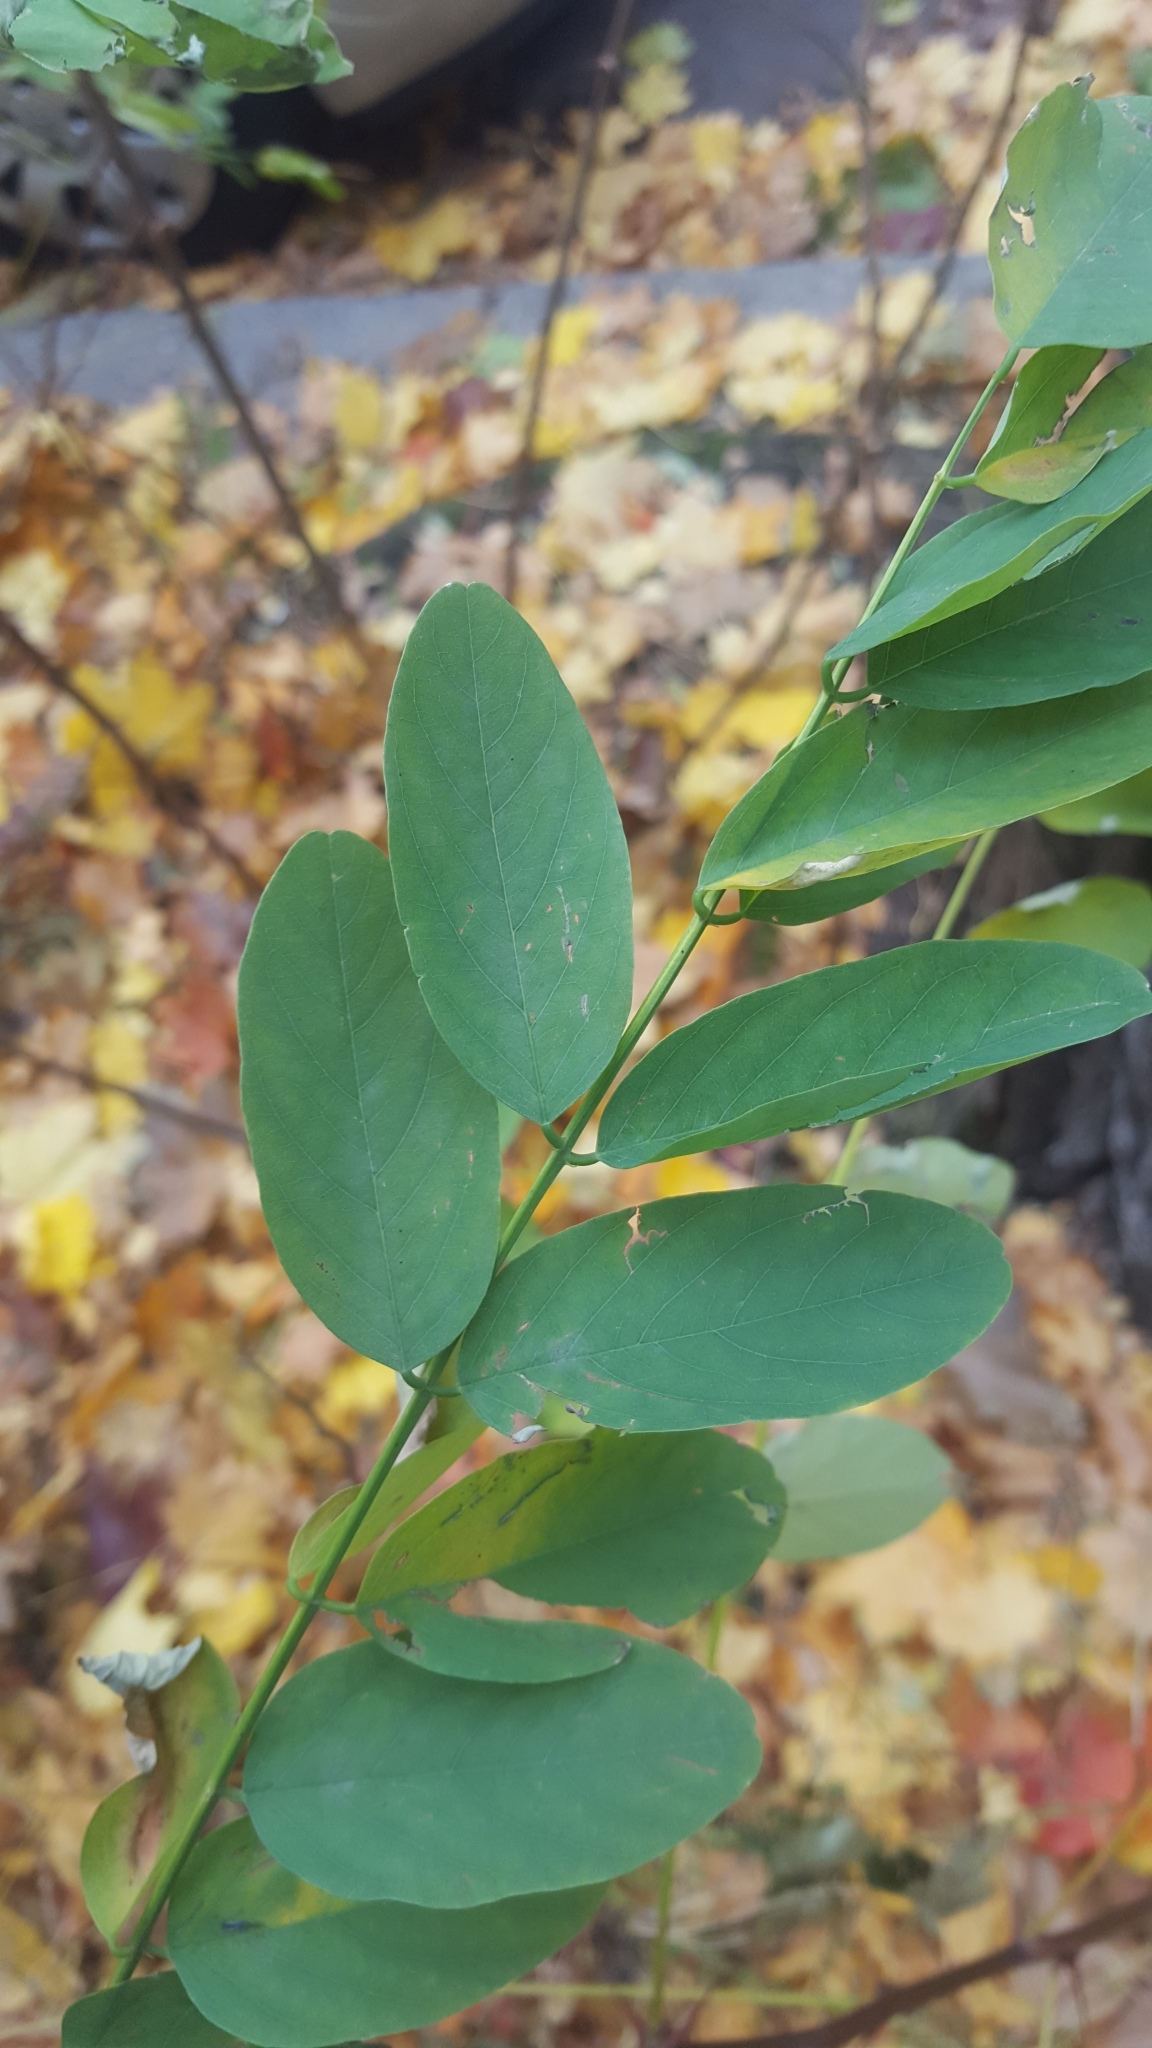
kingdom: Plantae
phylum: Tracheophyta
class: Magnoliopsida
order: Fabales
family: Fabaceae
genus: Robinia
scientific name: Robinia pseudoacacia
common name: Black locust
